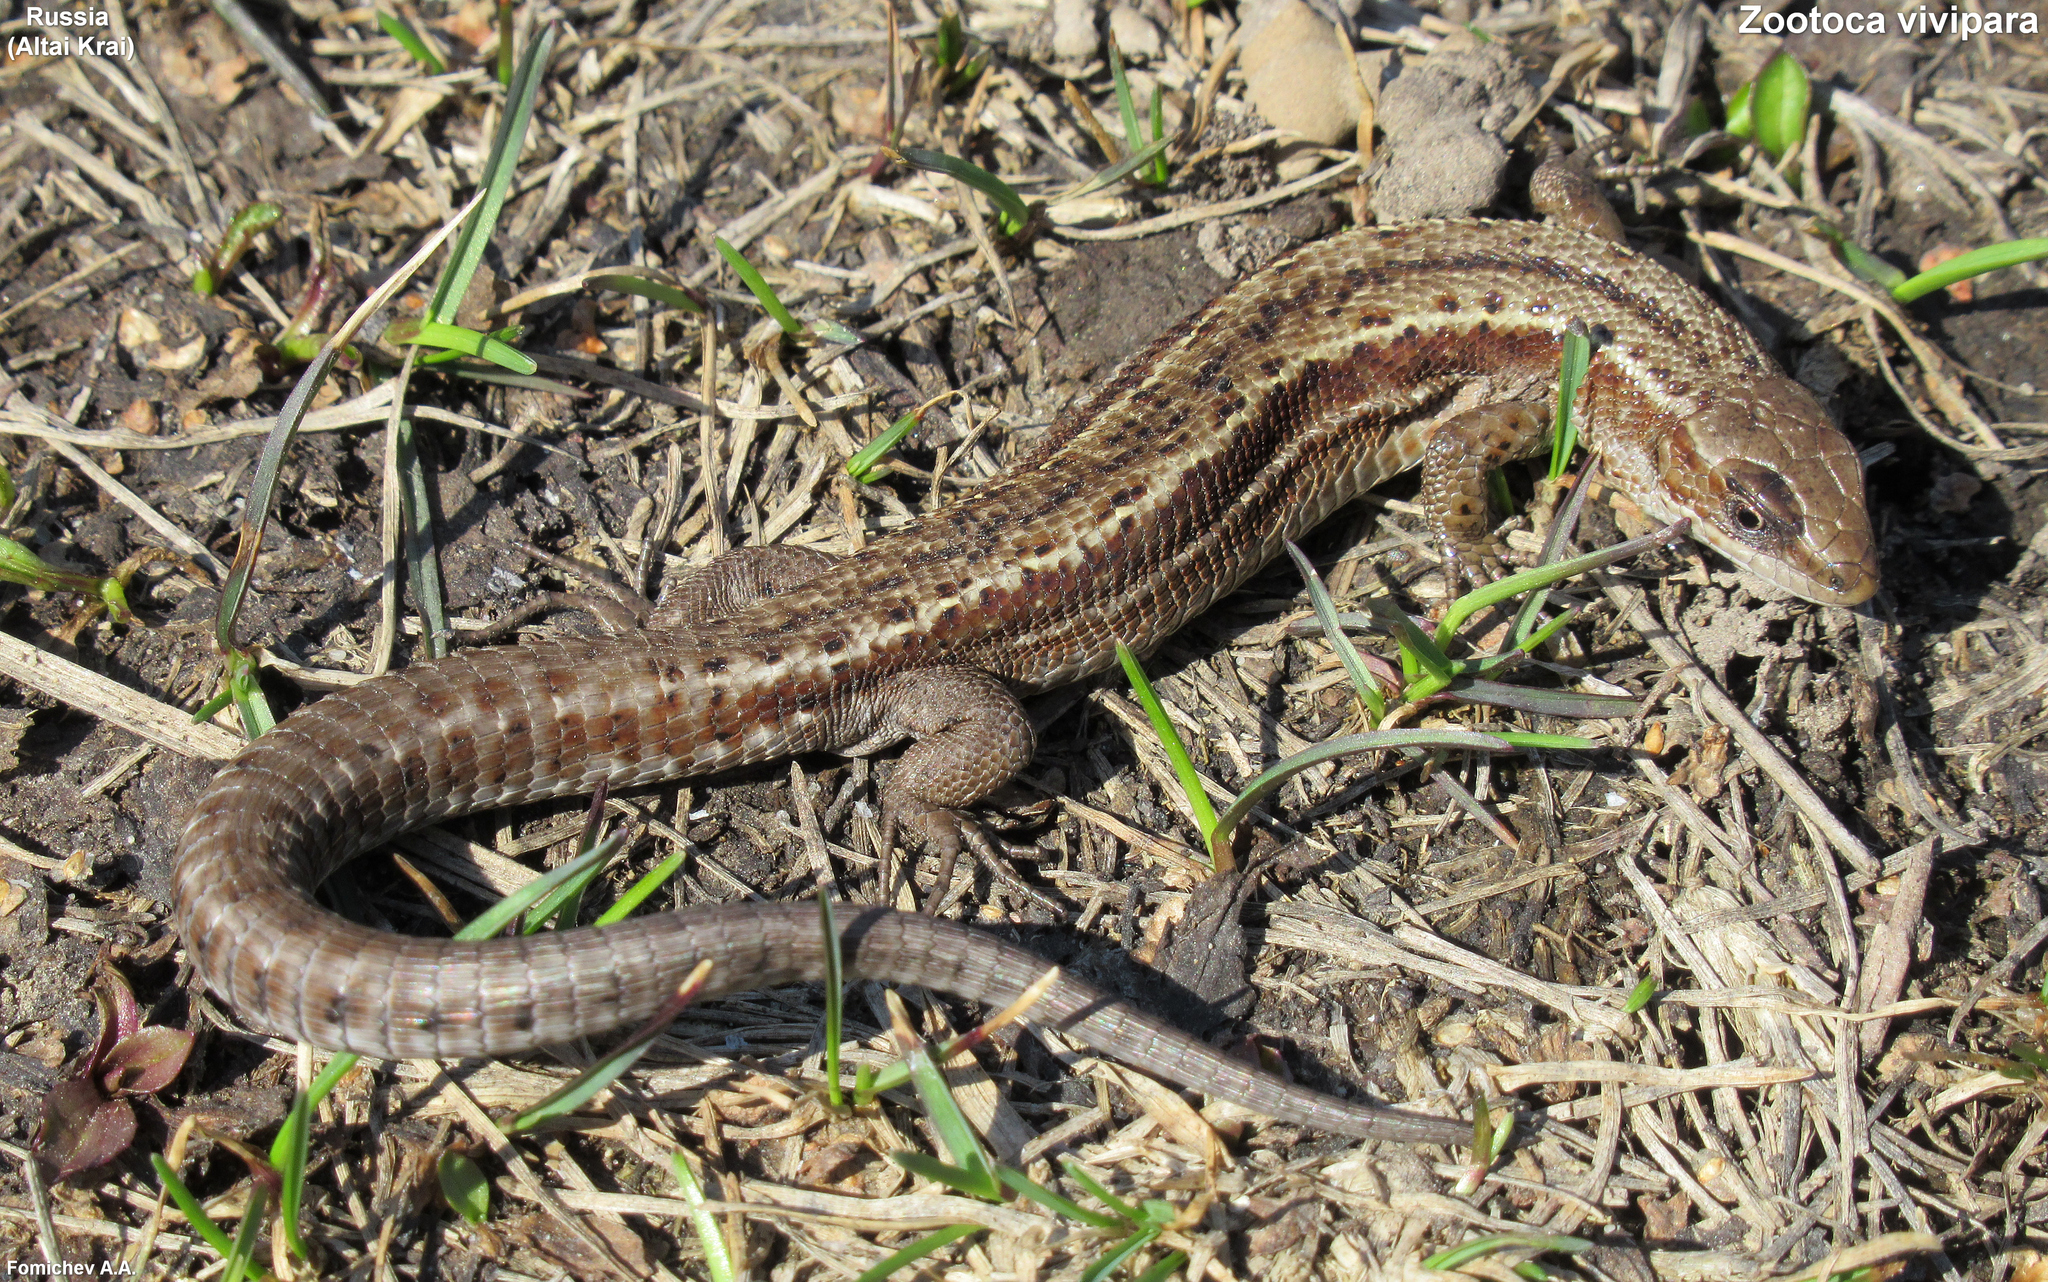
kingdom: Animalia
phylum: Chordata
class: Squamata
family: Lacertidae
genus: Zootoca
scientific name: Zootoca vivipara
